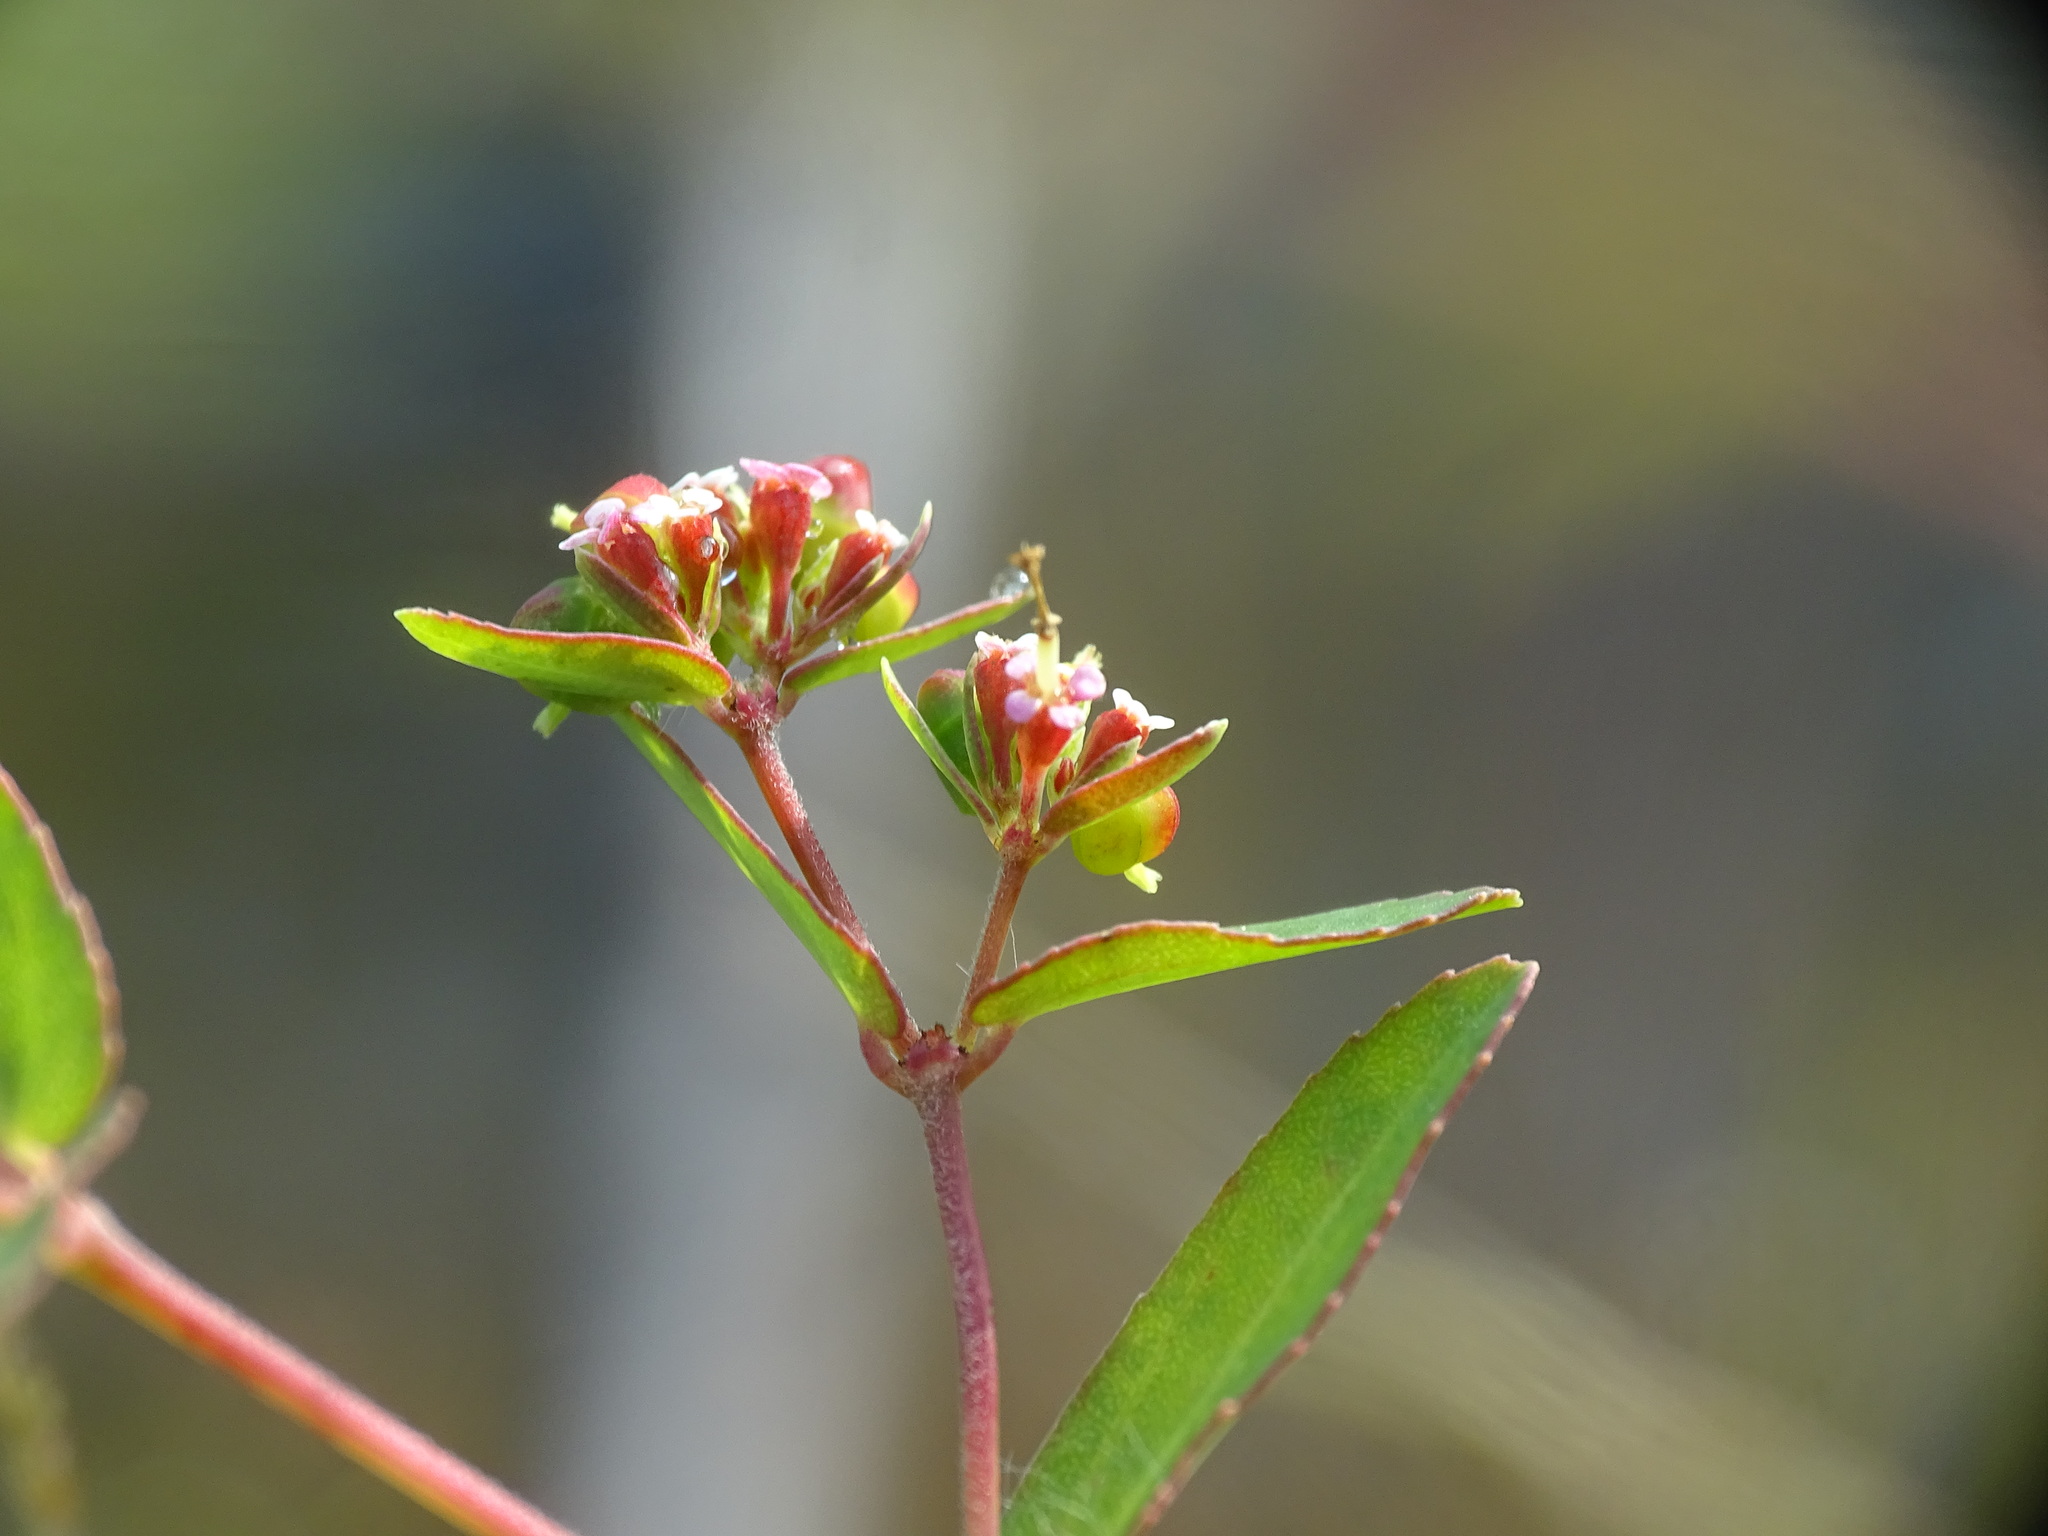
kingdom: Plantae
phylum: Tracheophyta
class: Magnoliopsida
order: Malpighiales
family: Euphorbiaceae
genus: Euphorbia
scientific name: Euphorbia nutans
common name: Eyebane
